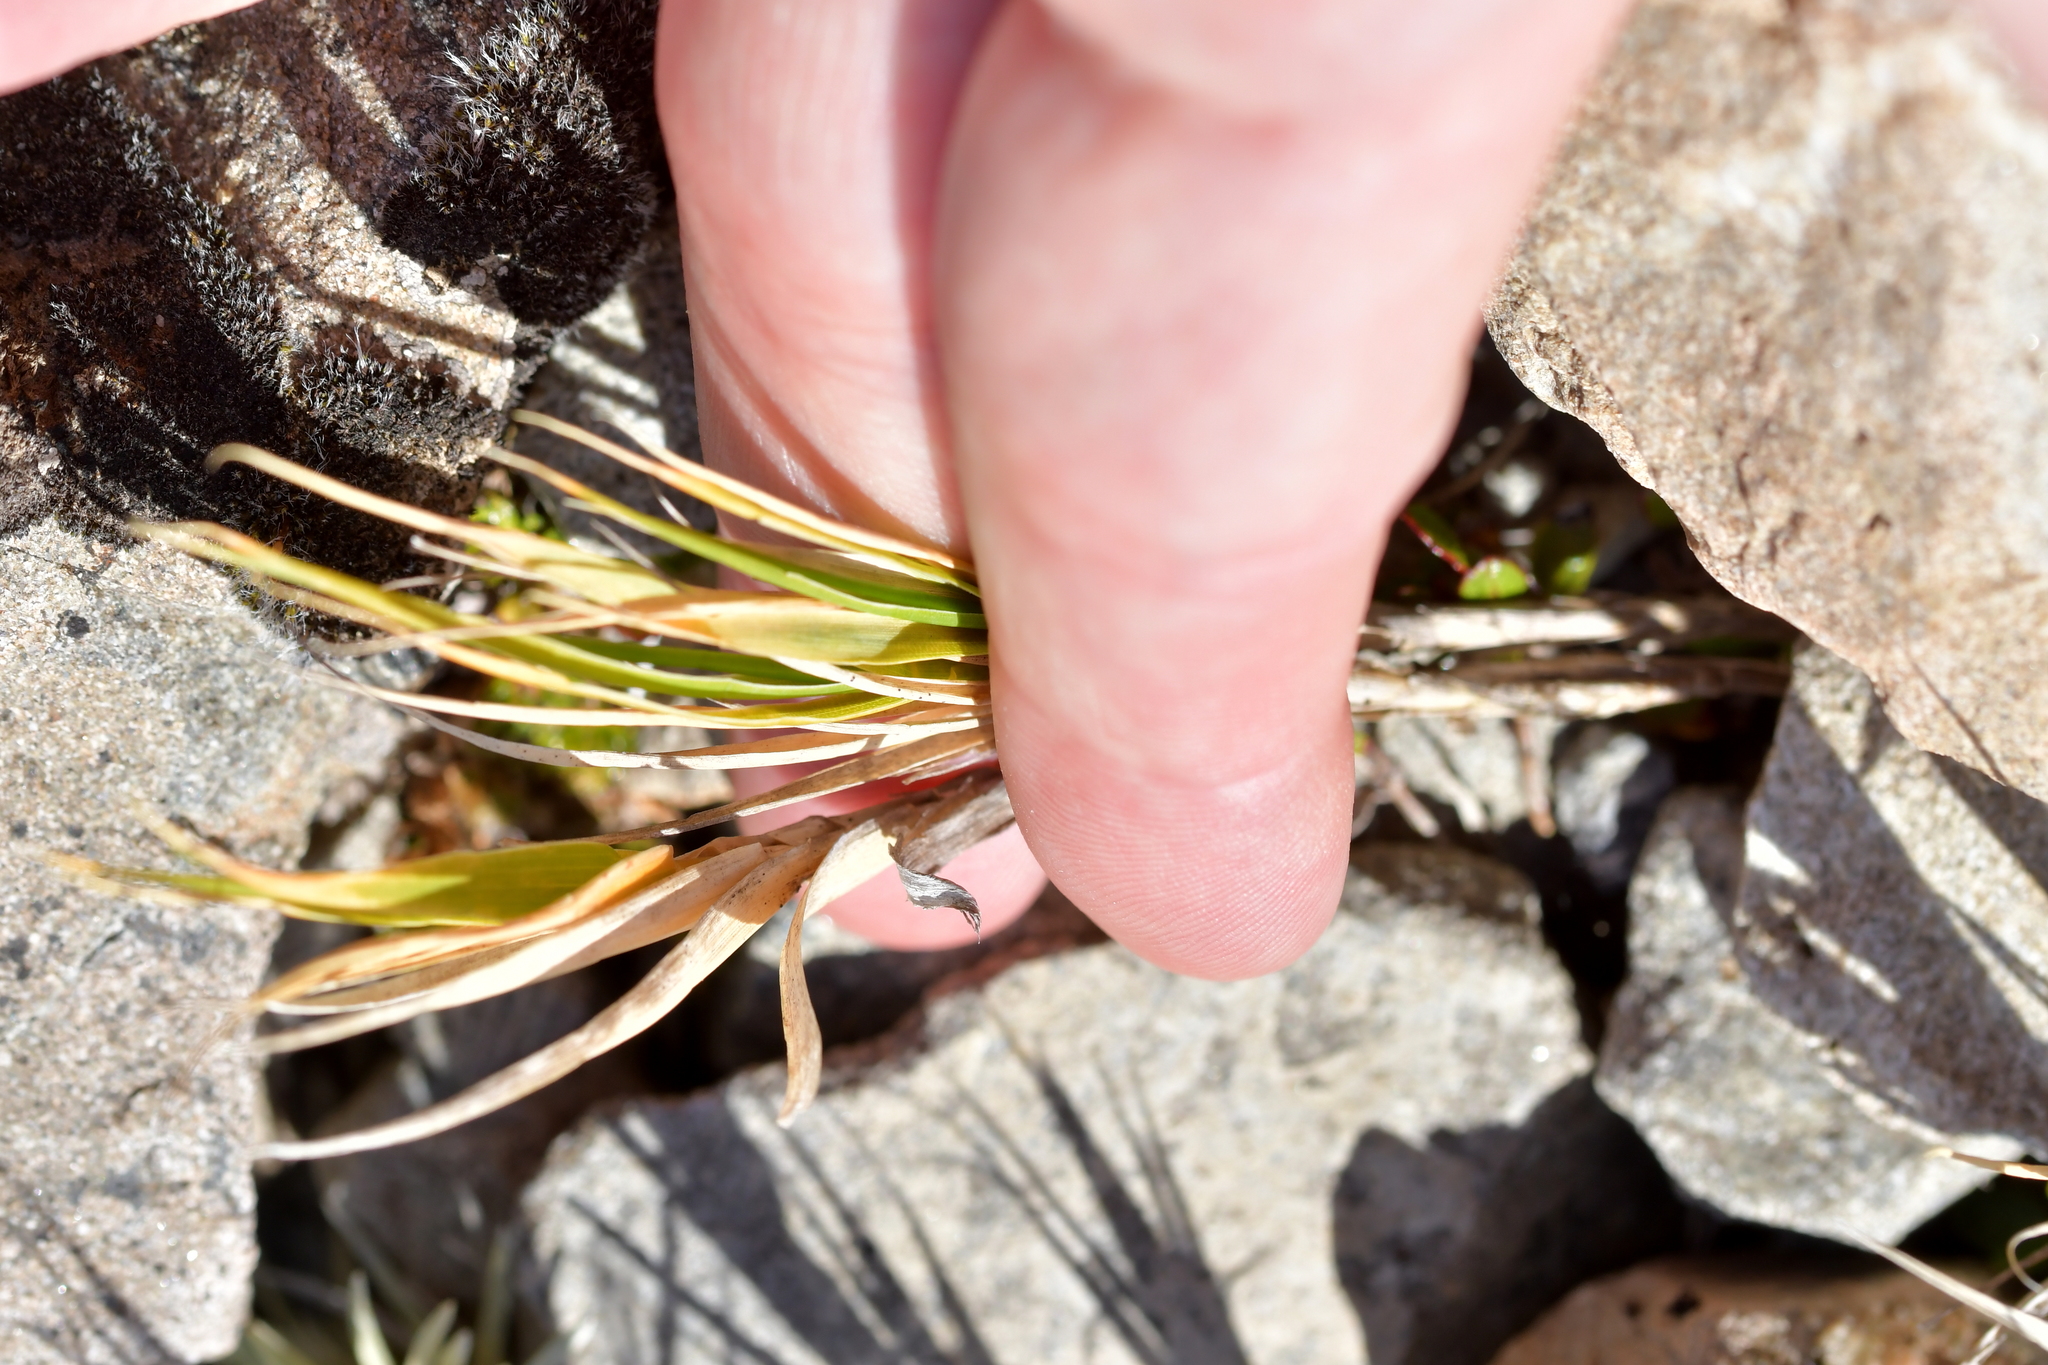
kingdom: Plantae
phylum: Tracheophyta
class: Liliopsida
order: Poales
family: Poaceae
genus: Zotovia
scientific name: Zotovia colensoi
